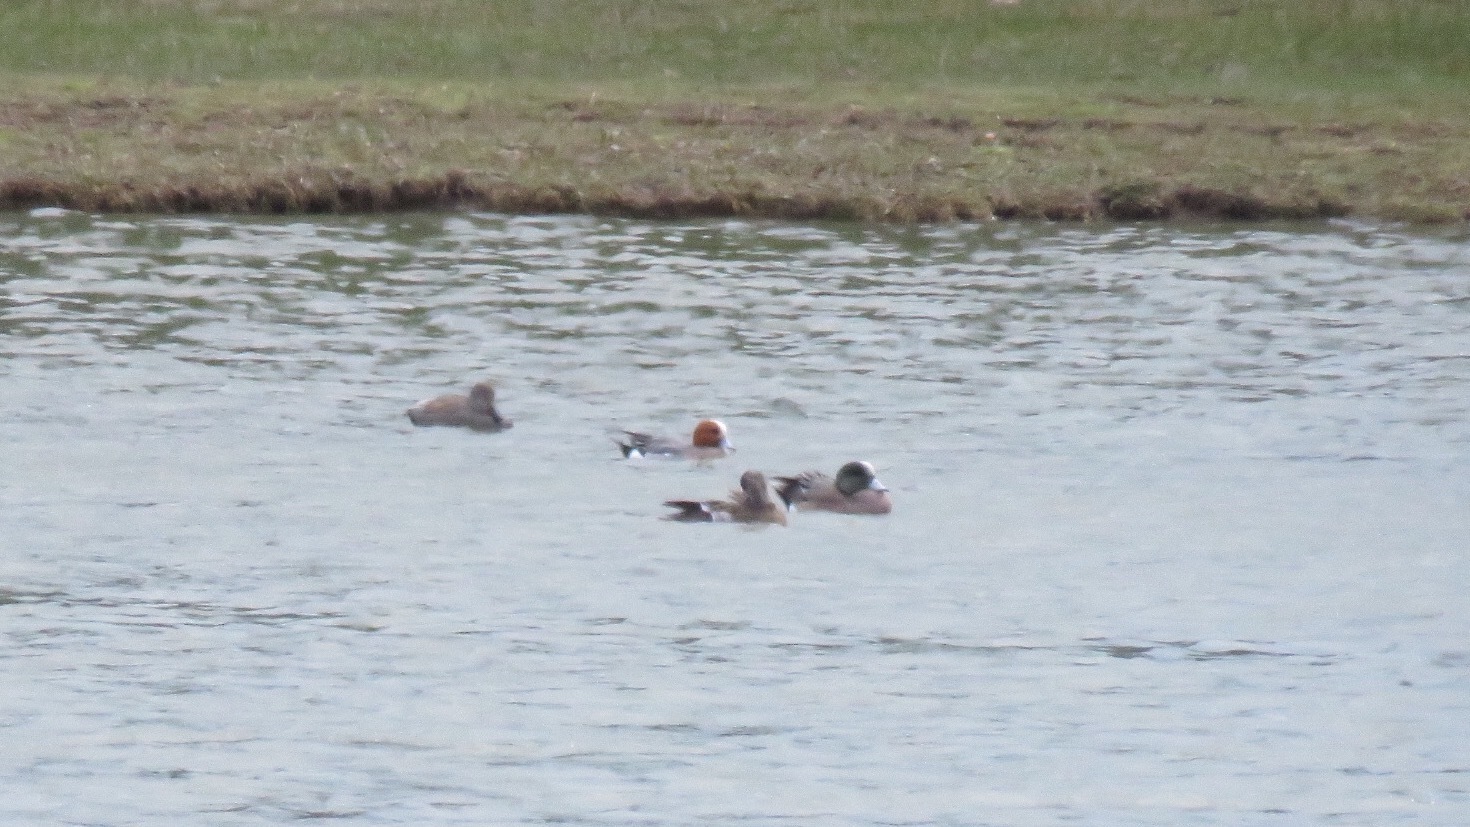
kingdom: Animalia
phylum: Chordata
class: Aves
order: Anseriformes
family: Anatidae
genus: Mareca
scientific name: Mareca penelope
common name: Eurasian wigeon
